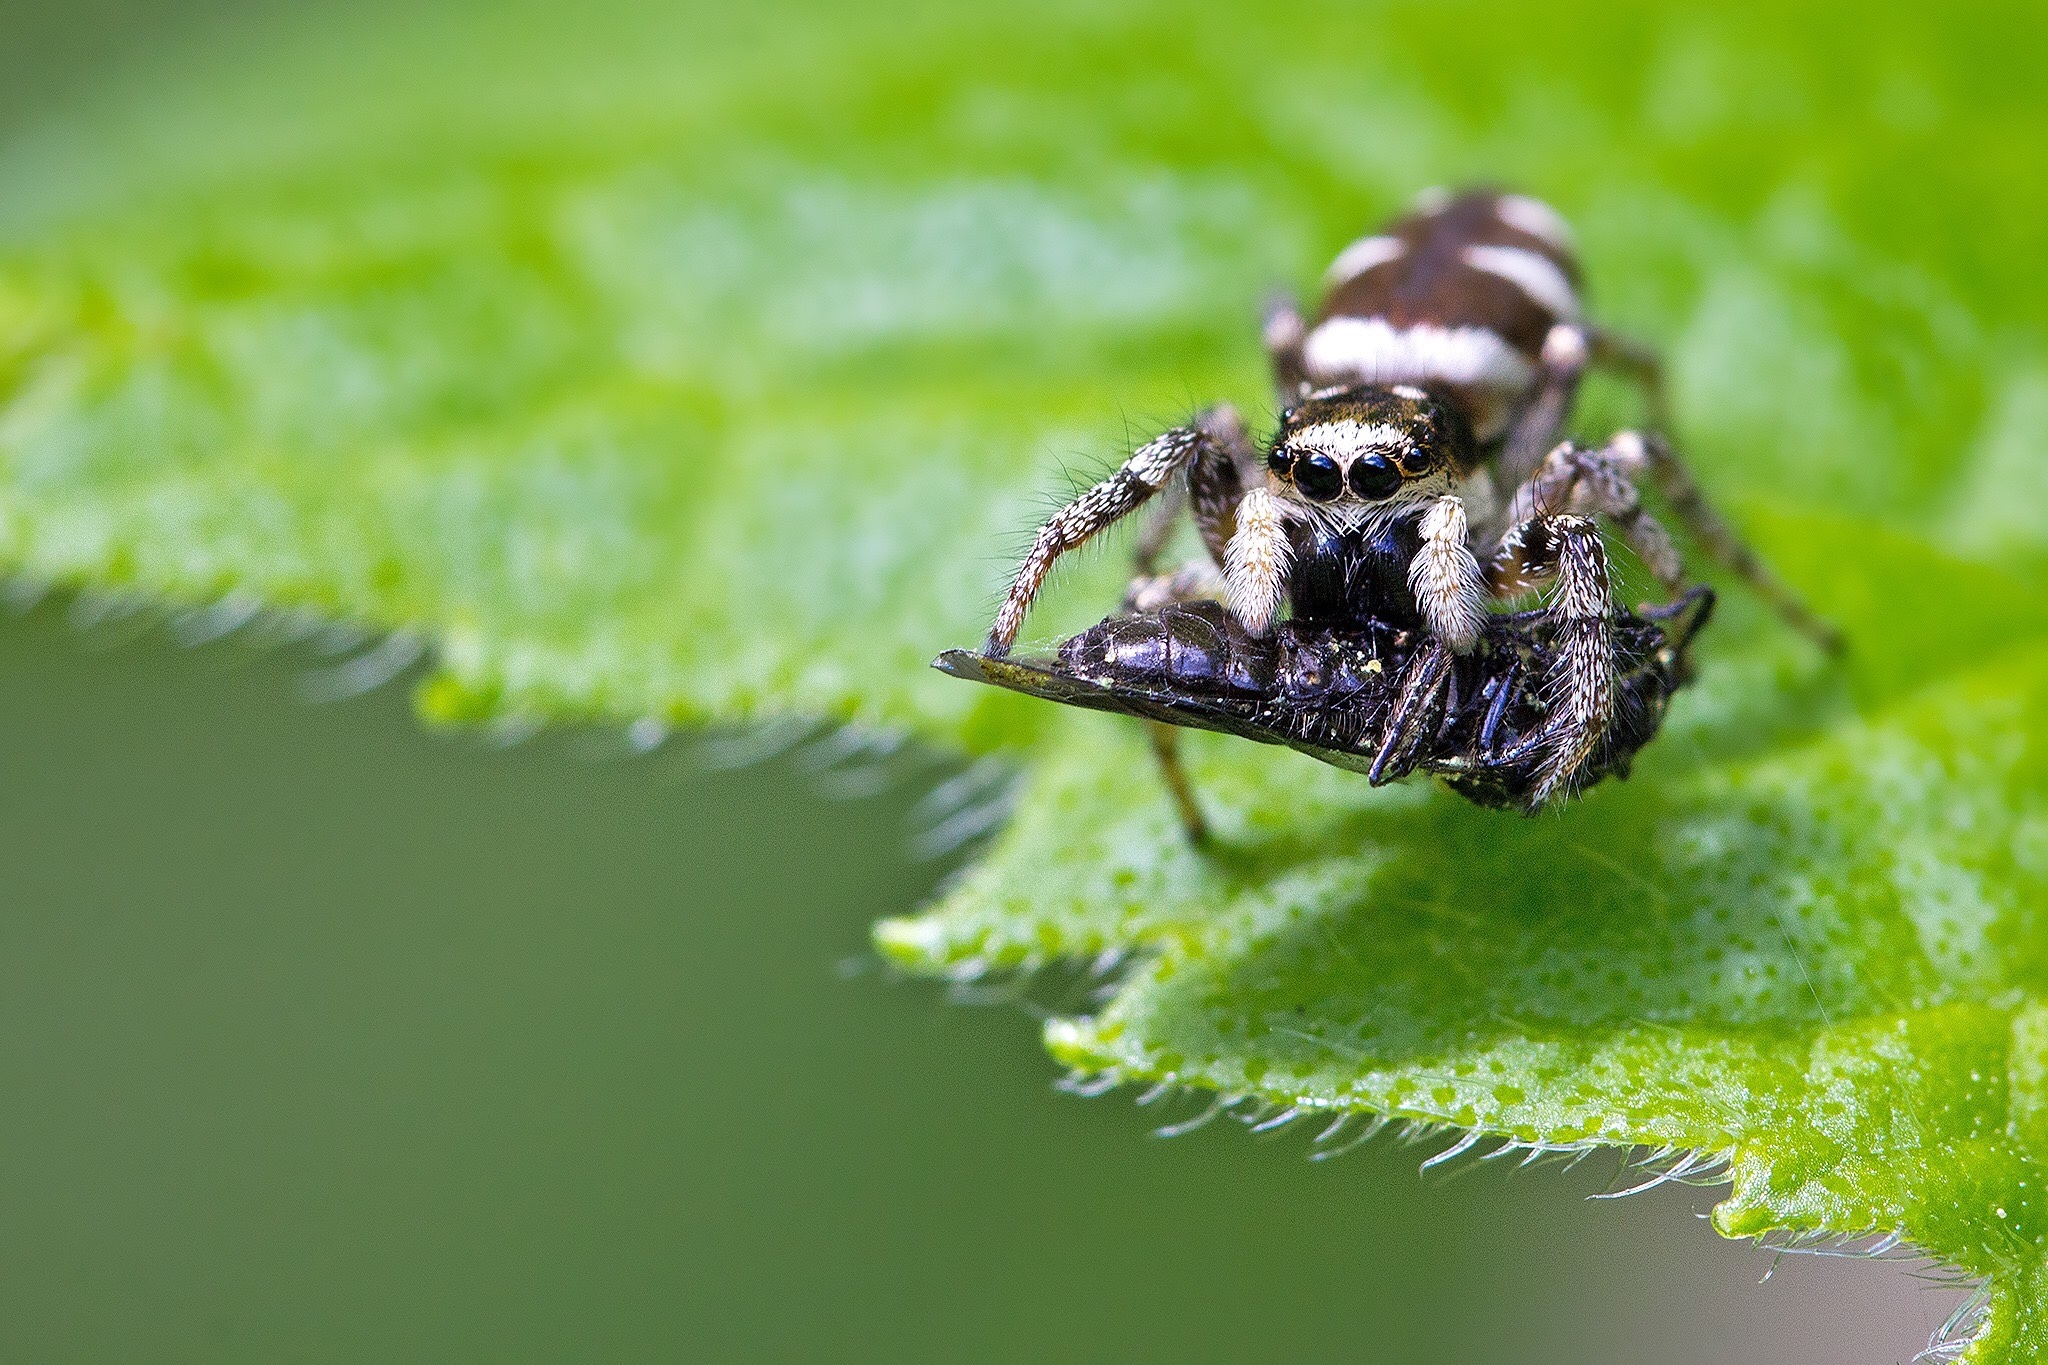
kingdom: Animalia
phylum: Arthropoda
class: Arachnida
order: Araneae
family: Salticidae
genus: Salticus
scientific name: Salticus scenicus
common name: Zebra jumper
